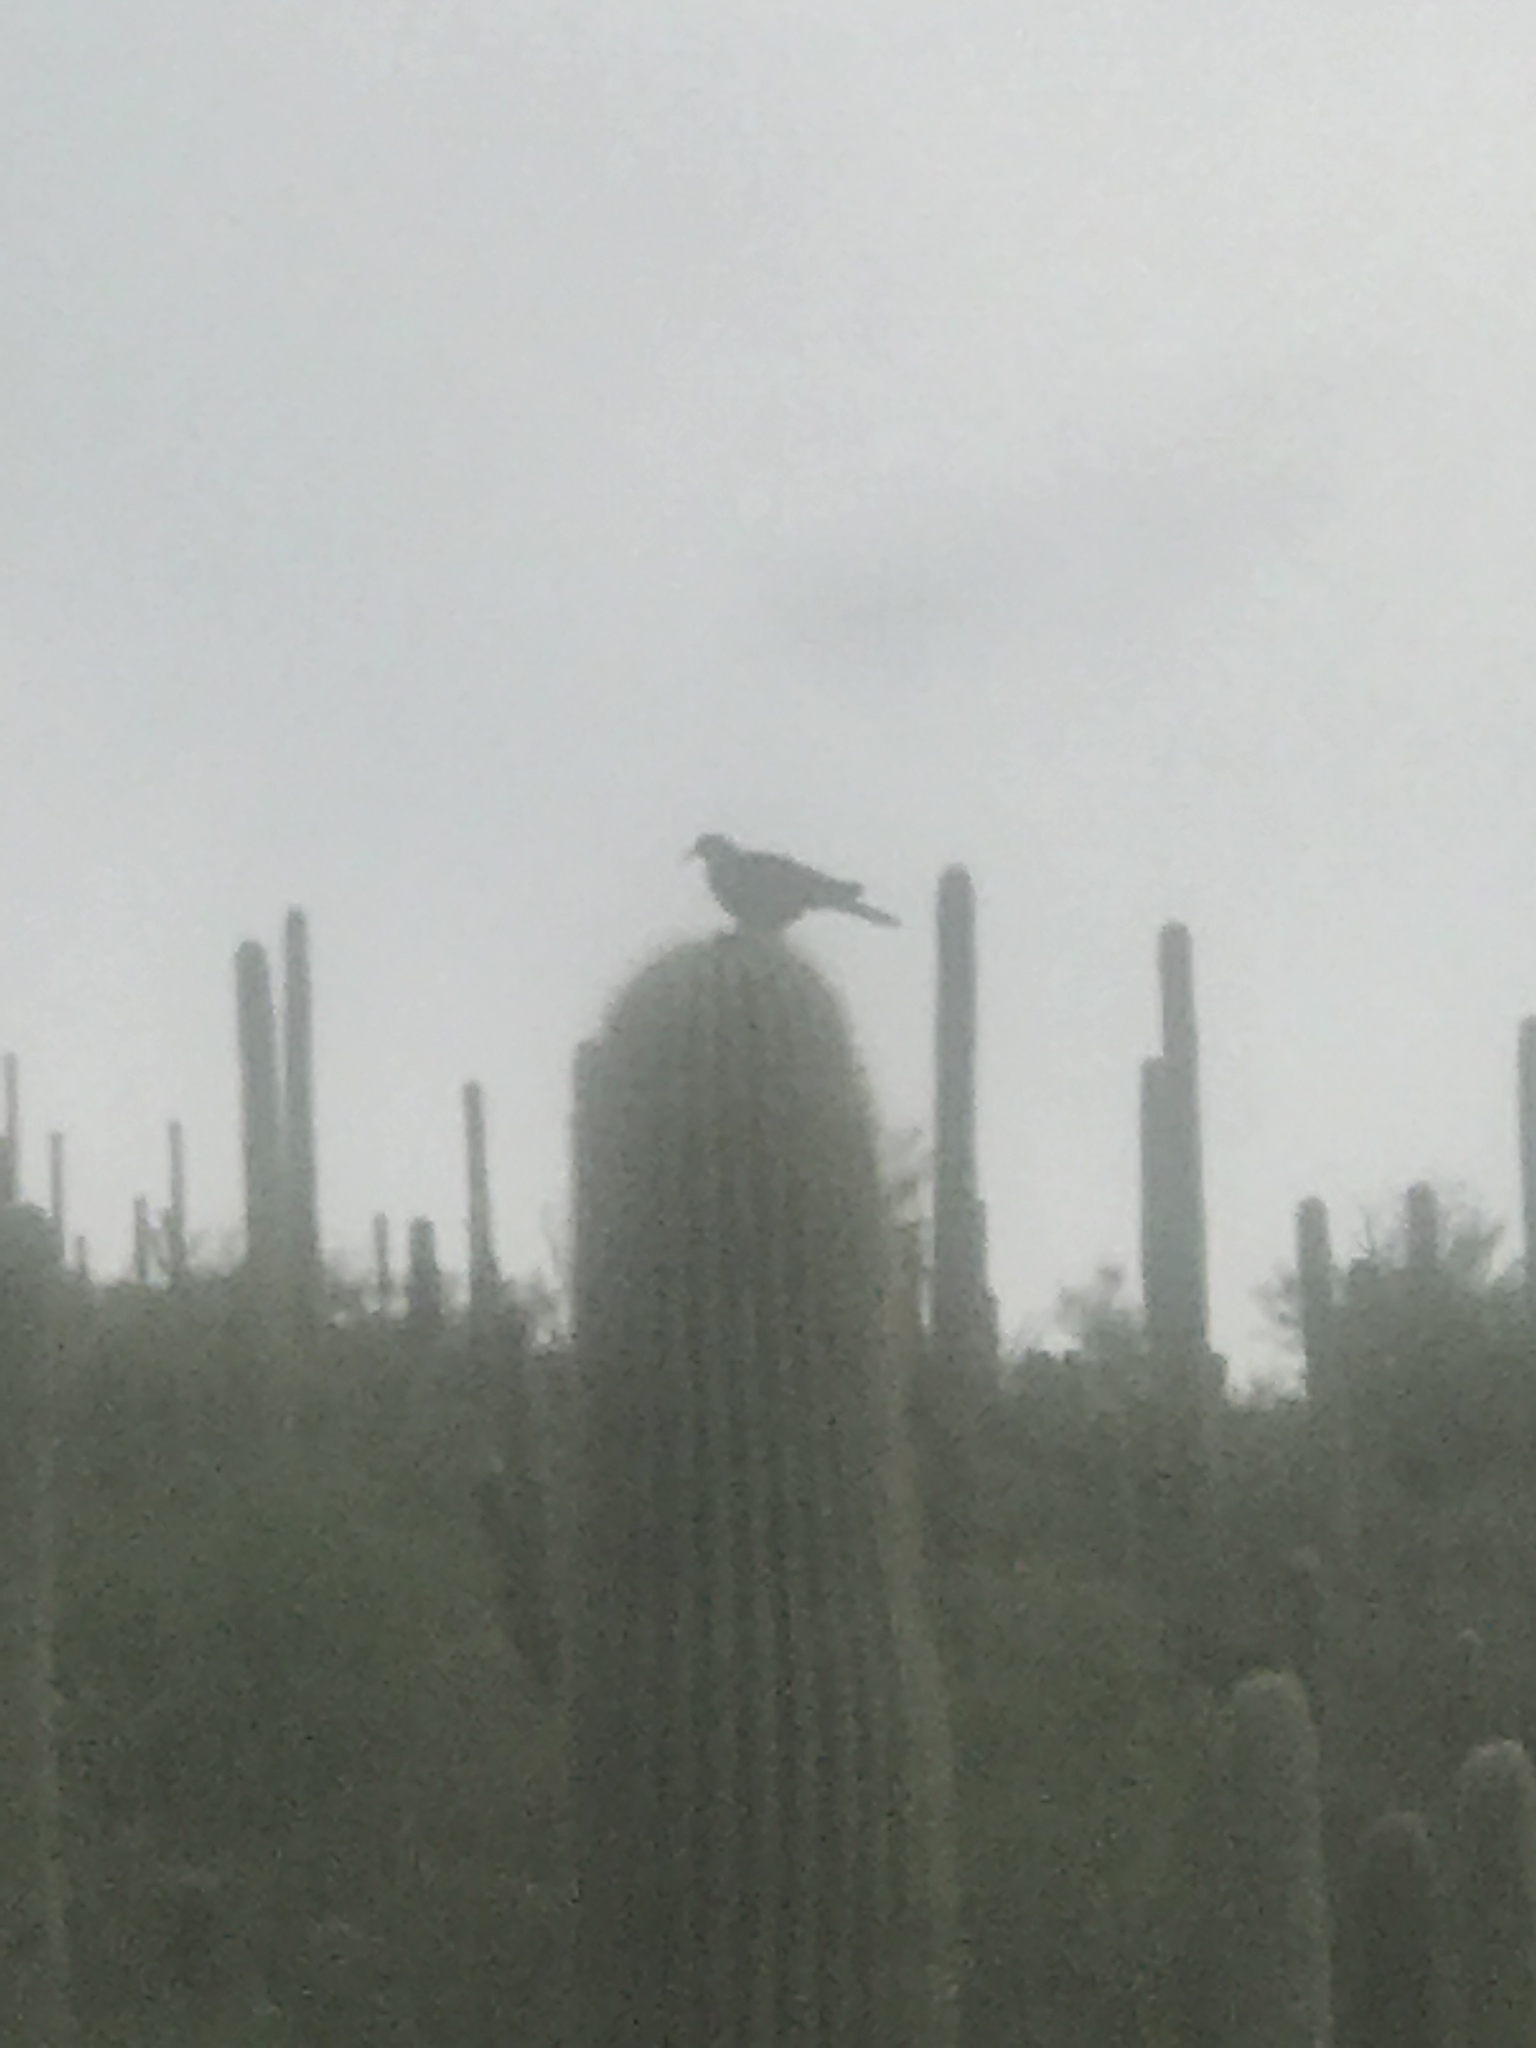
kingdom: Animalia
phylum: Chordata
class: Aves
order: Columbiformes
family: Columbidae
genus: Zenaida
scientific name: Zenaida asiatica
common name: White-winged dove
